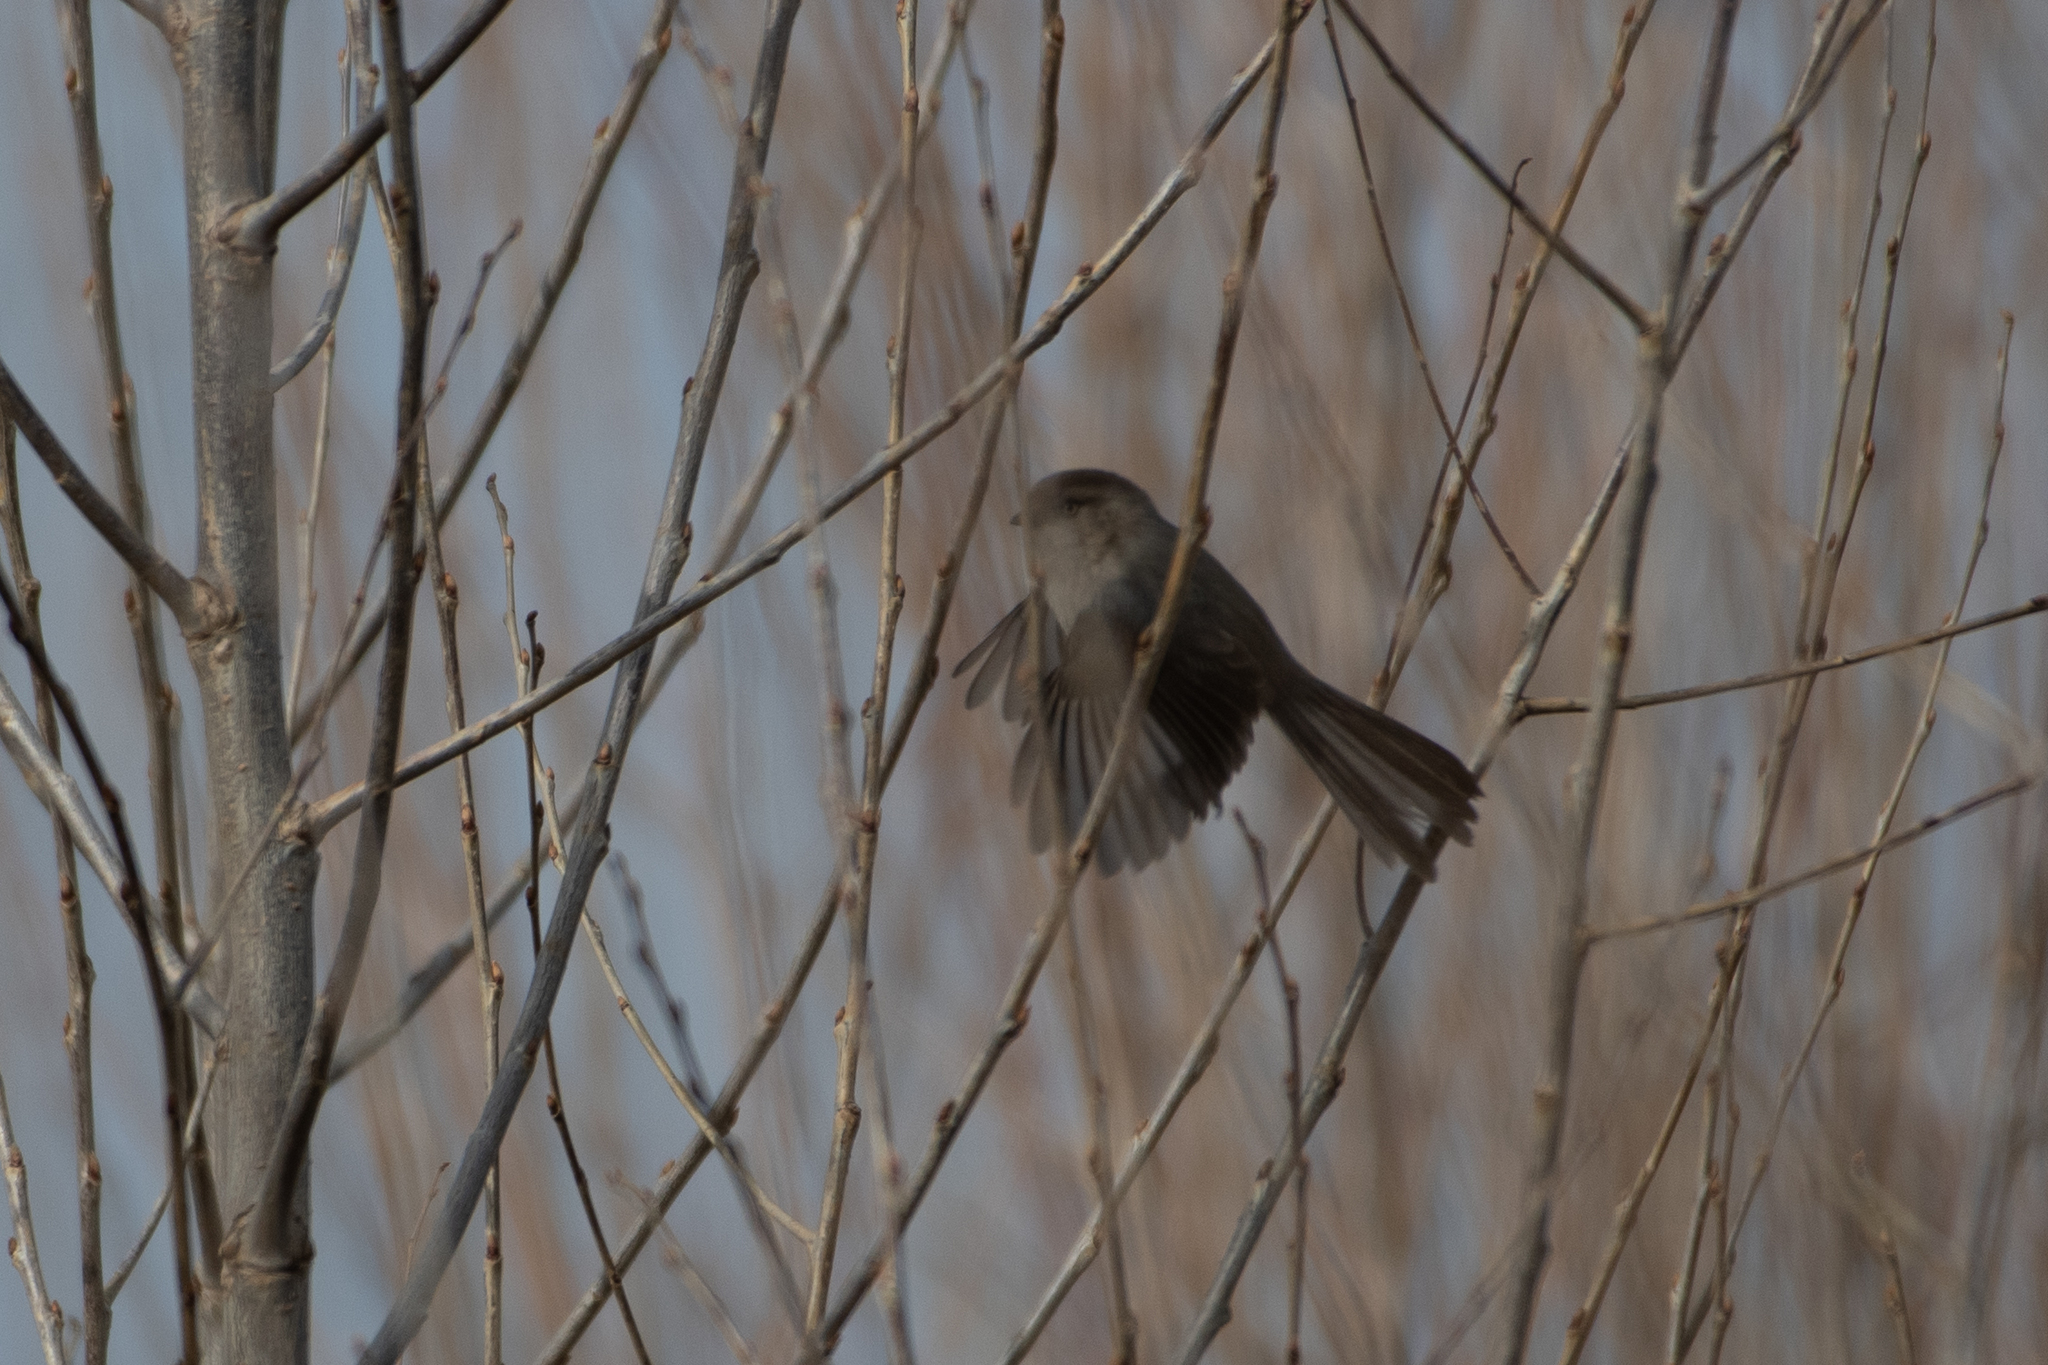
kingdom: Animalia
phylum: Chordata
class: Aves
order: Passeriformes
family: Aegithalidae
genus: Psaltriparus
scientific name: Psaltriparus minimus
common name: American bushtit
